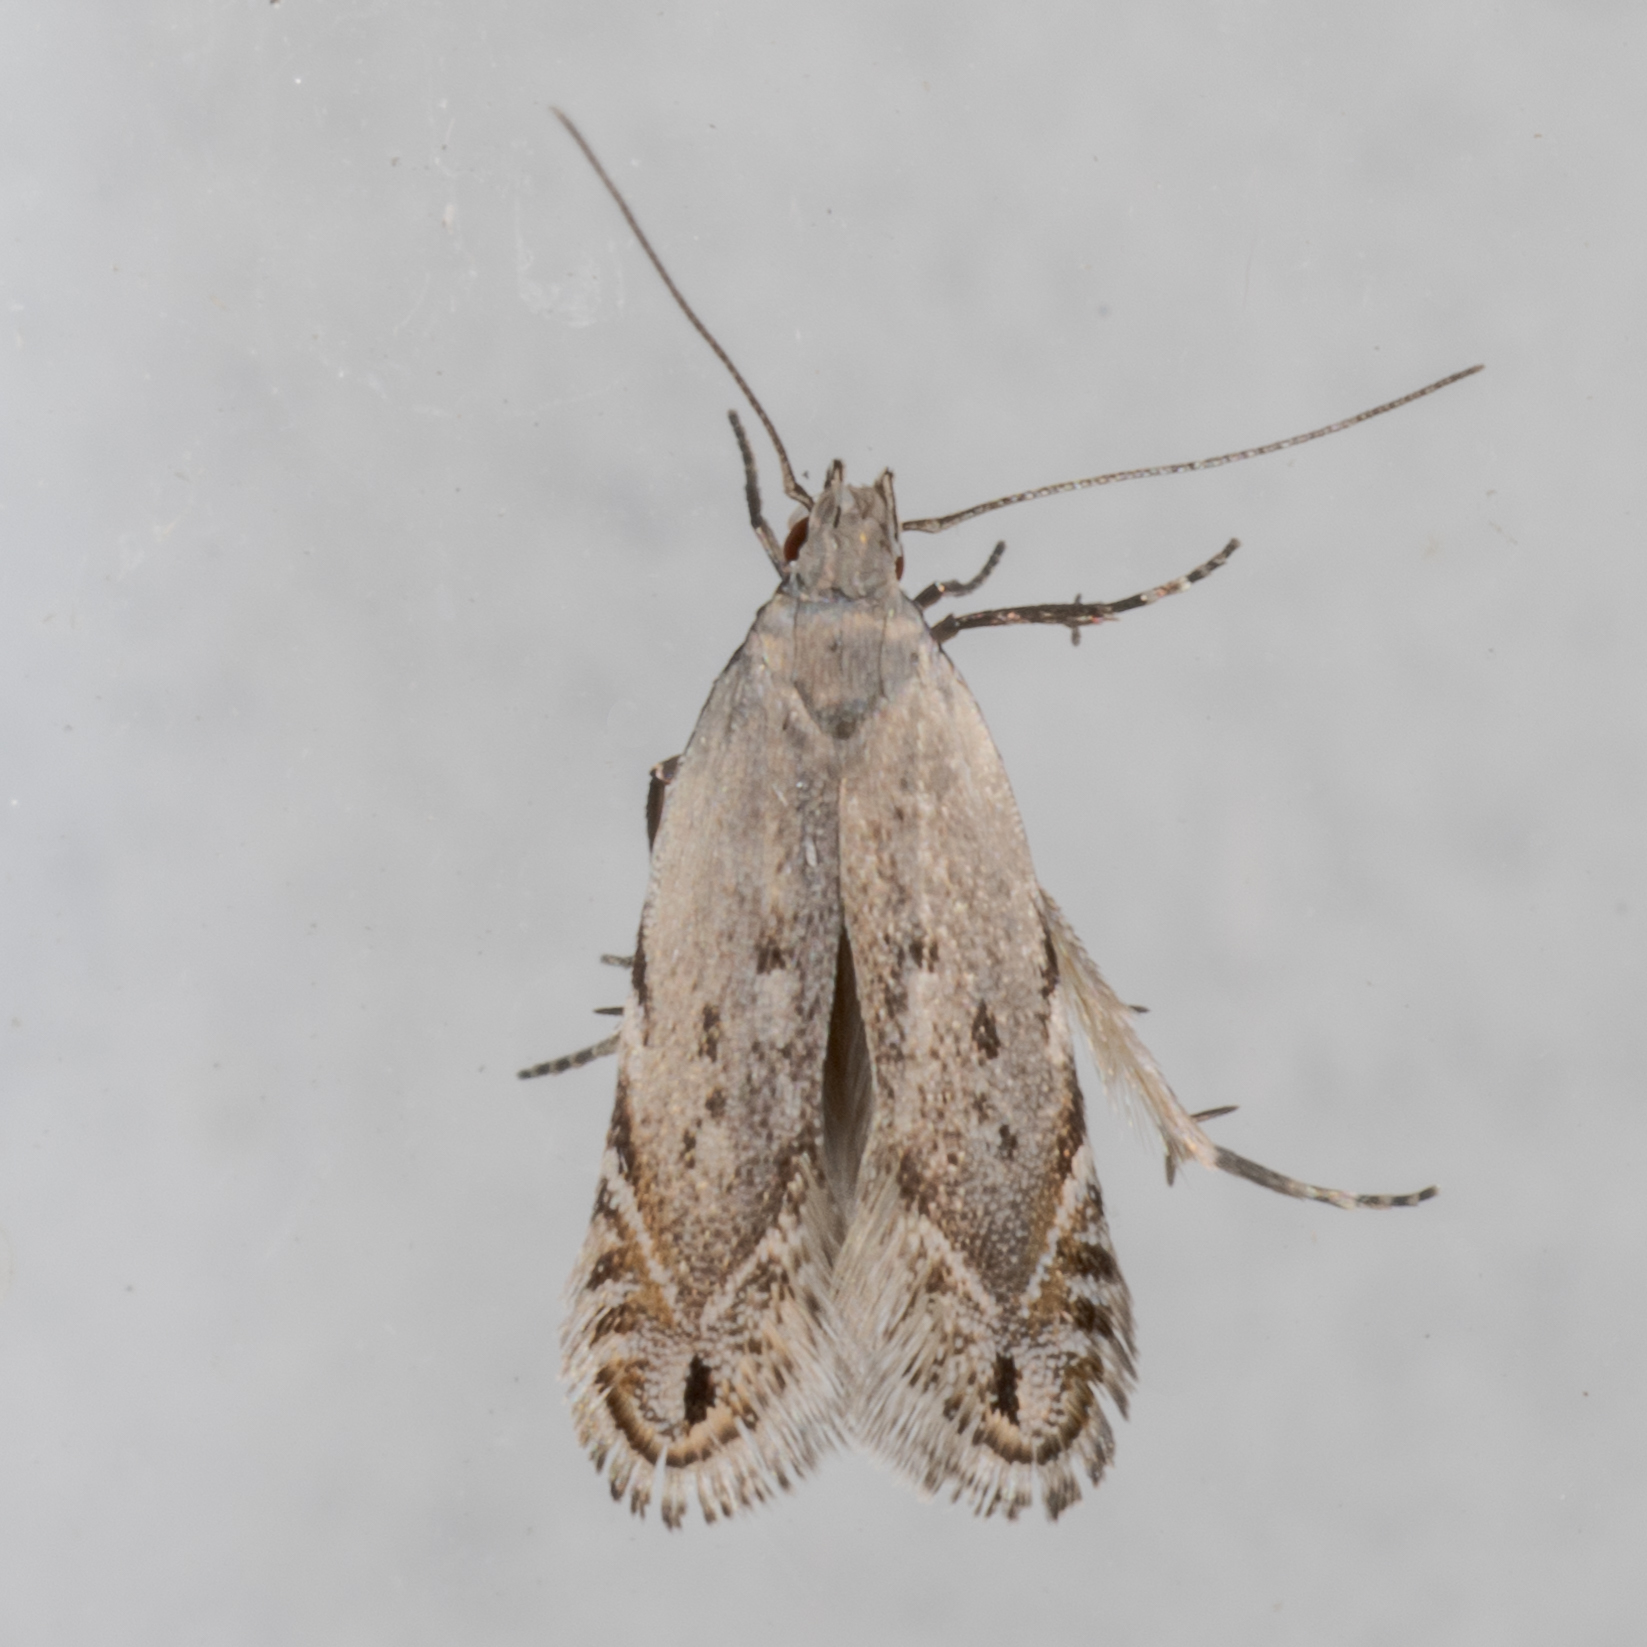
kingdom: Animalia
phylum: Arthropoda
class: Insecta
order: Lepidoptera
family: Gelechiidae
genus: Battaristis
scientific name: Battaristis concinnusella
